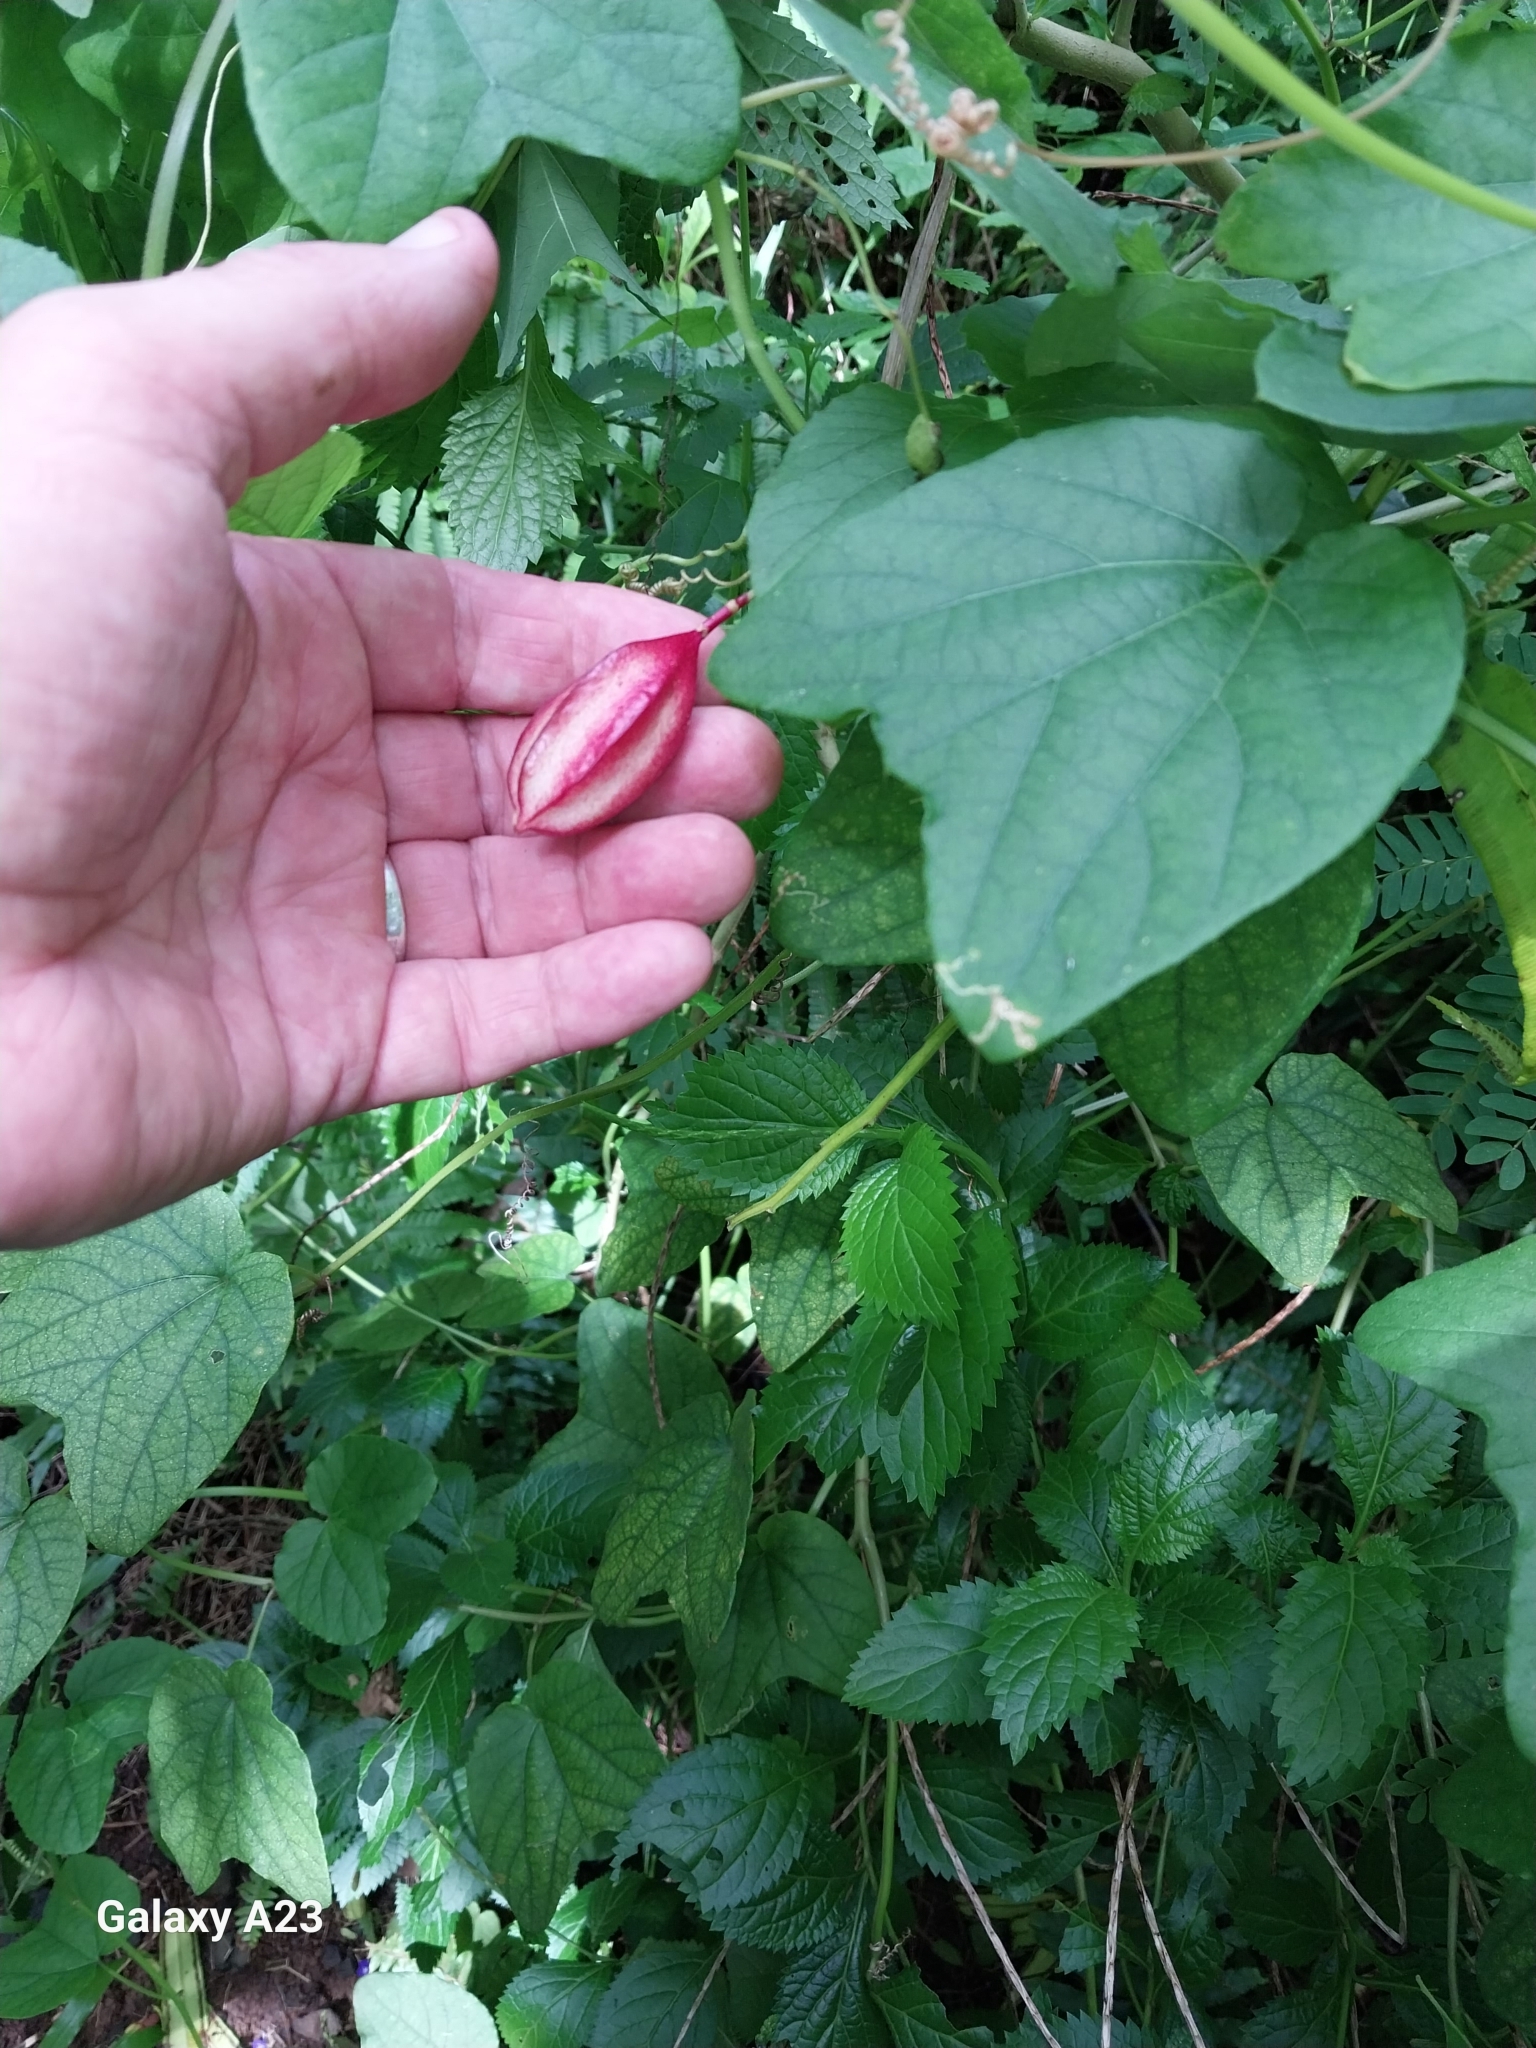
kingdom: Plantae
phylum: Tracheophyta
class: Magnoliopsida
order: Malpighiales
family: Passifloraceae
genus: Passiflora
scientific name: Passiflora rubra
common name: Snakeberry vine
